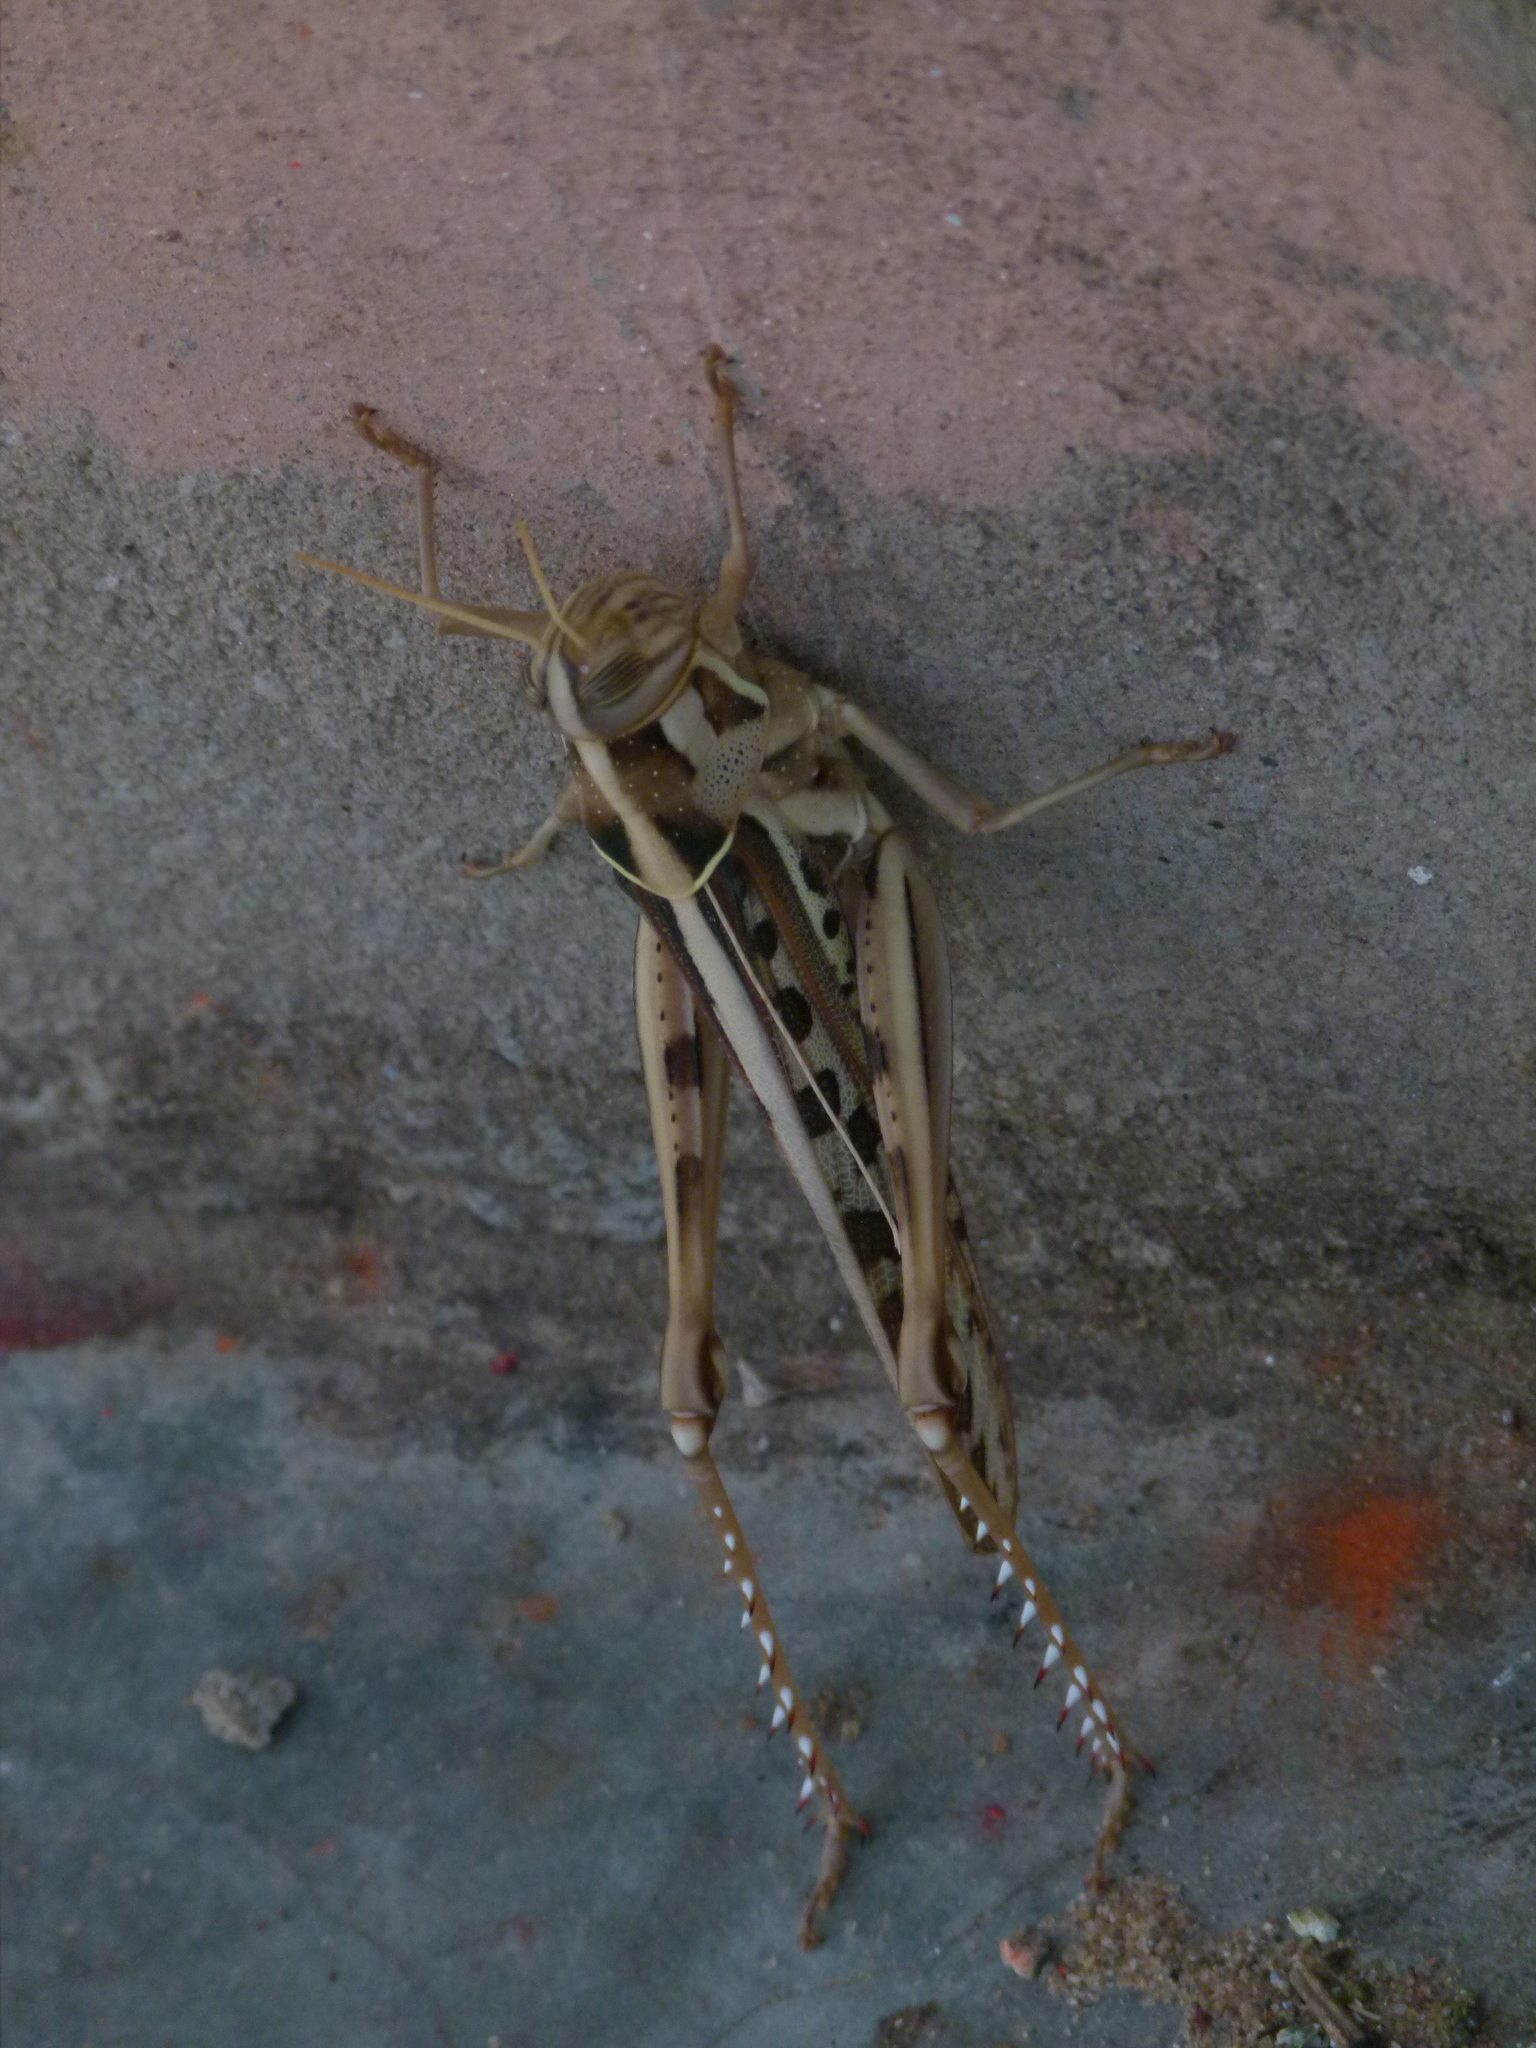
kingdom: Animalia
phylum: Arthropoda
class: Insecta
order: Orthoptera
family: Acrididae
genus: Cyrtacanthacris
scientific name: Cyrtacanthacris tatarica
